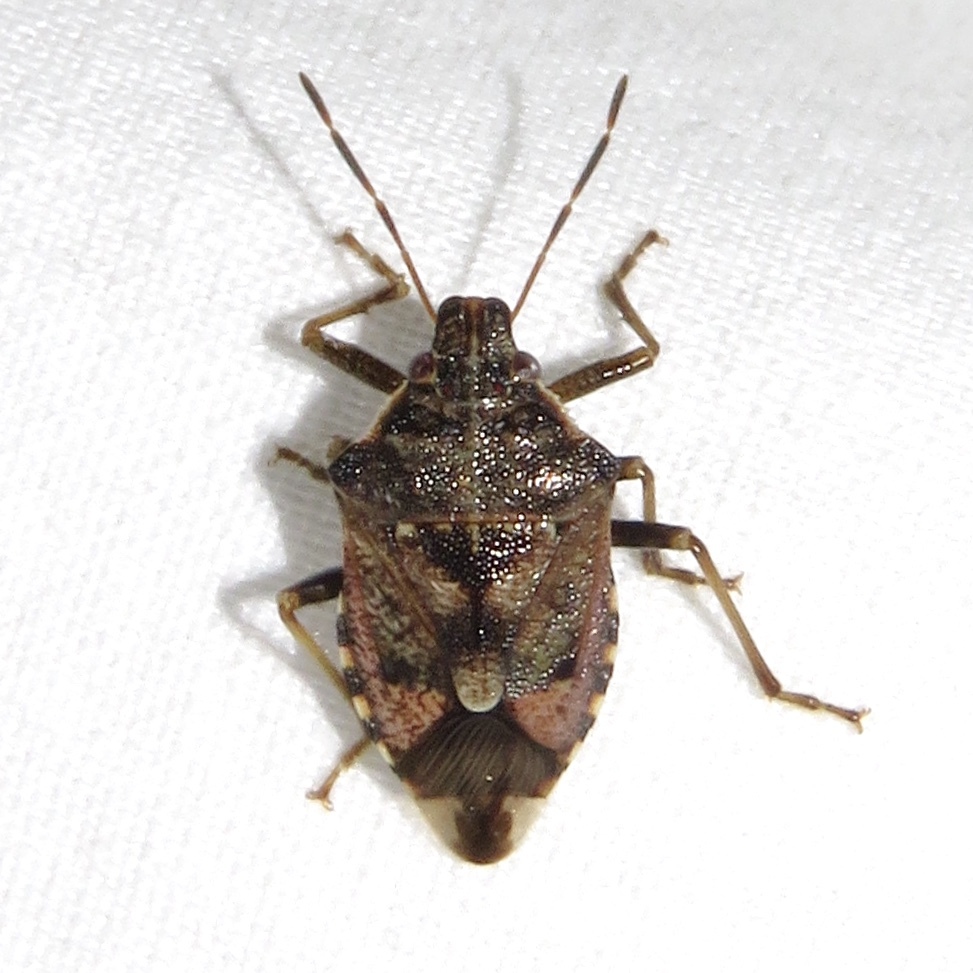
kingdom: Animalia
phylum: Arthropoda
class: Insecta
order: Hemiptera
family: Pentatomidae
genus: Podisus
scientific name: Podisus serieventris
